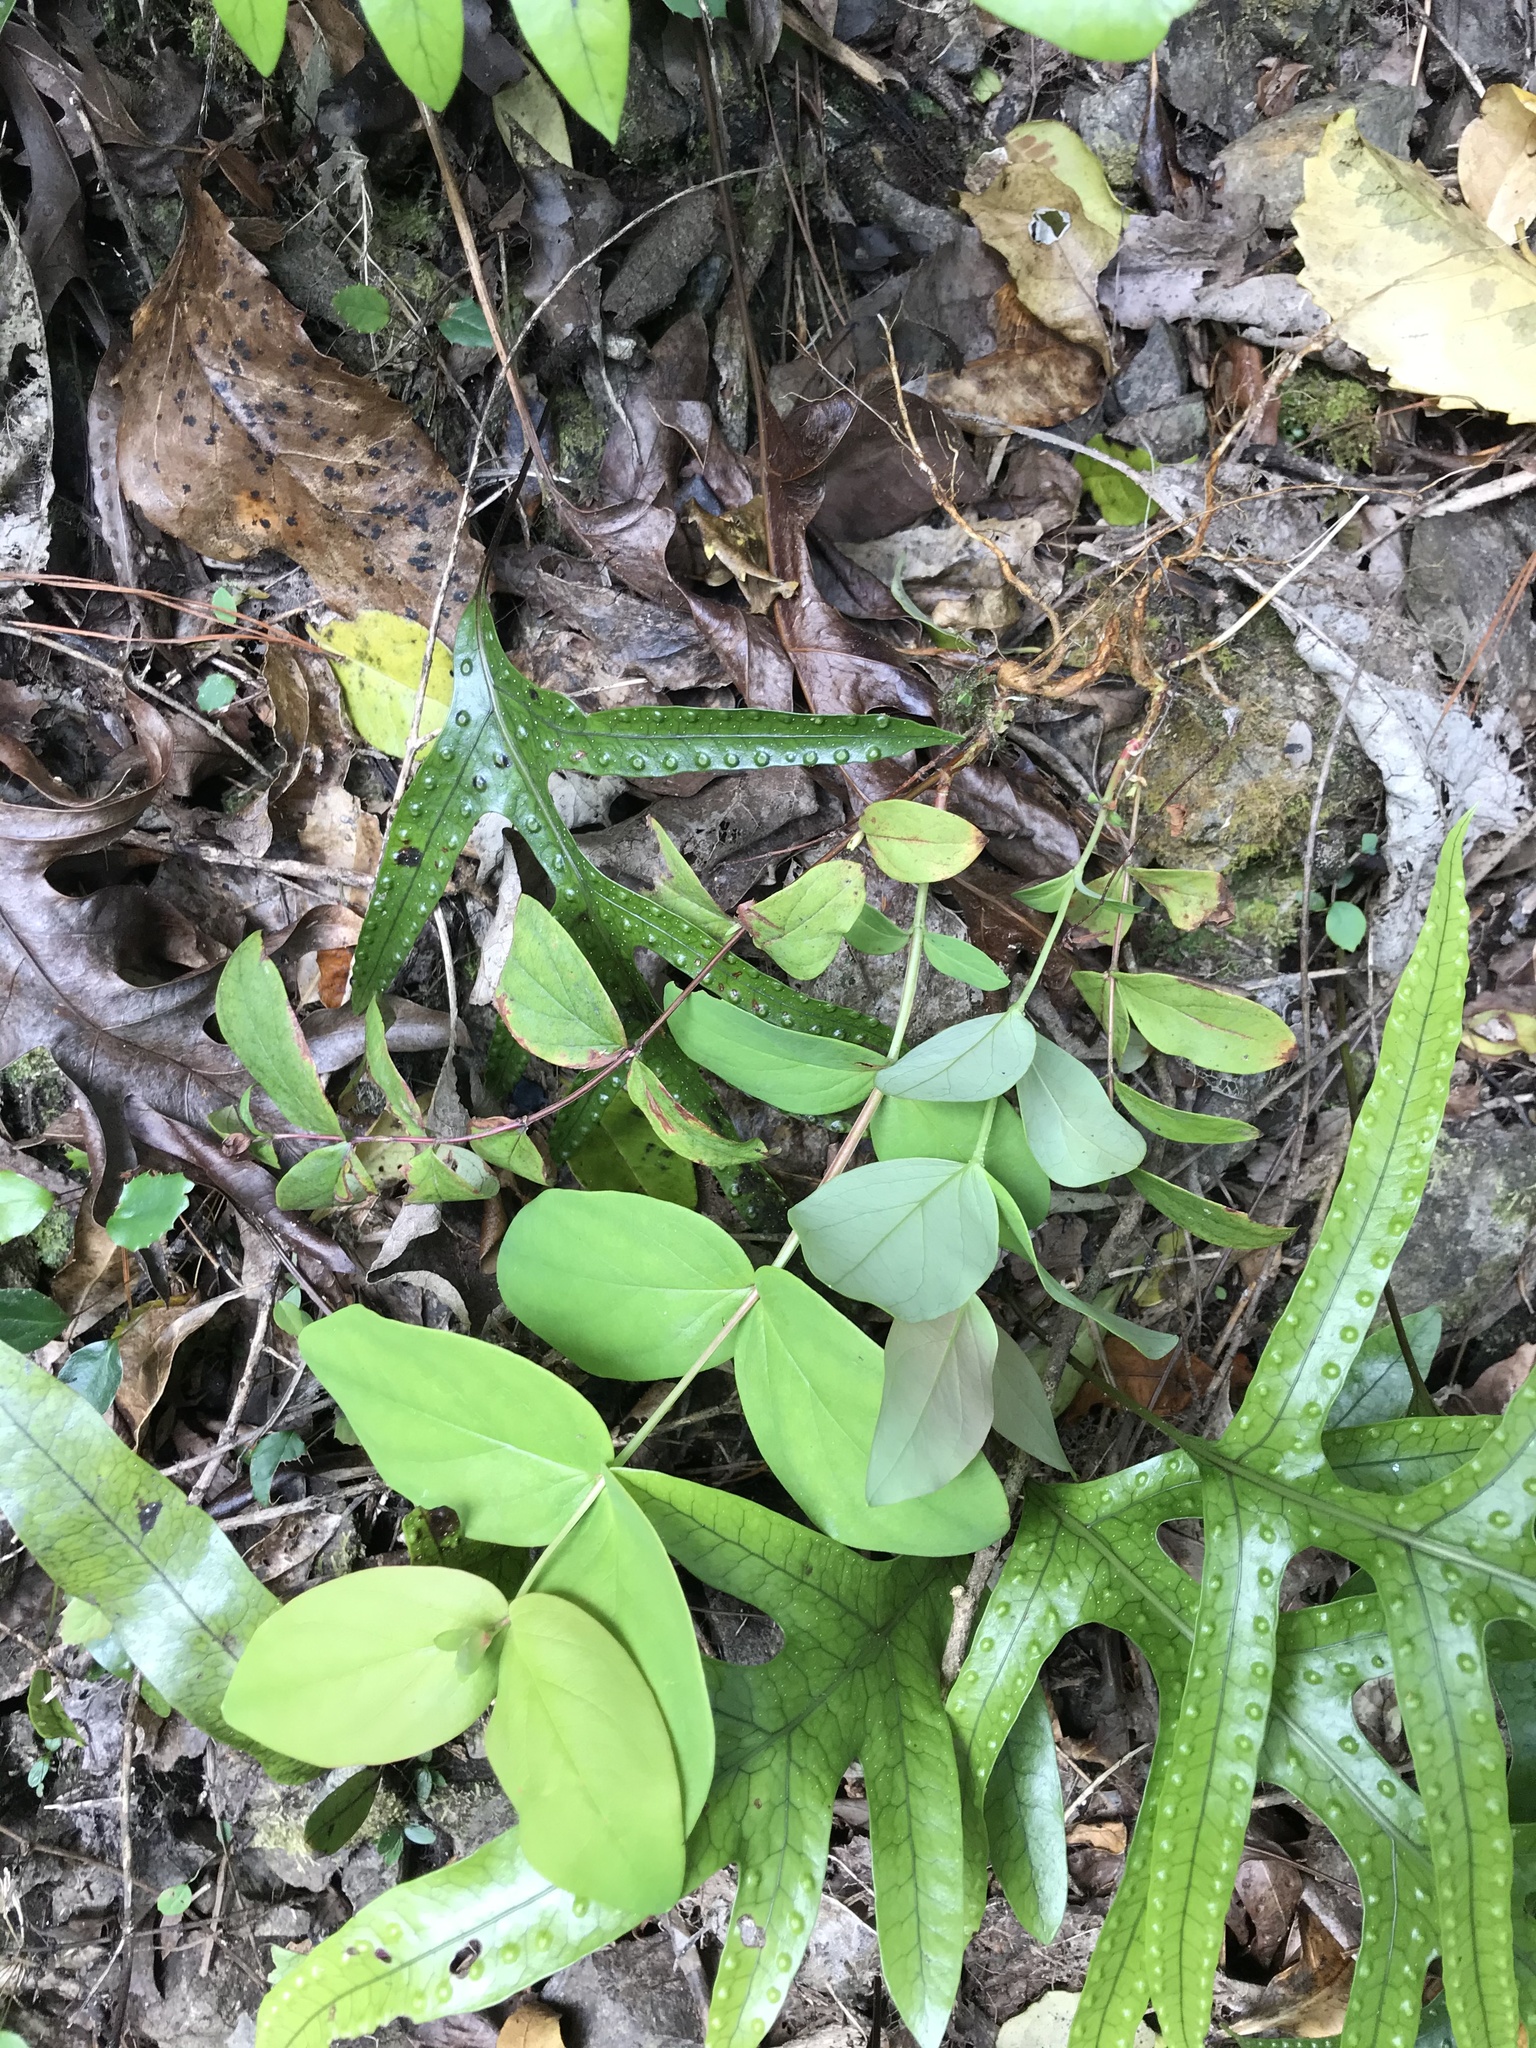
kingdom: Plantae
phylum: Tracheophyta
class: Magnoliopsida
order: Malpighiales
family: Hypericaceae
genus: Hypericum
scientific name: Hypericum androsaemum
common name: Sweet-amber
